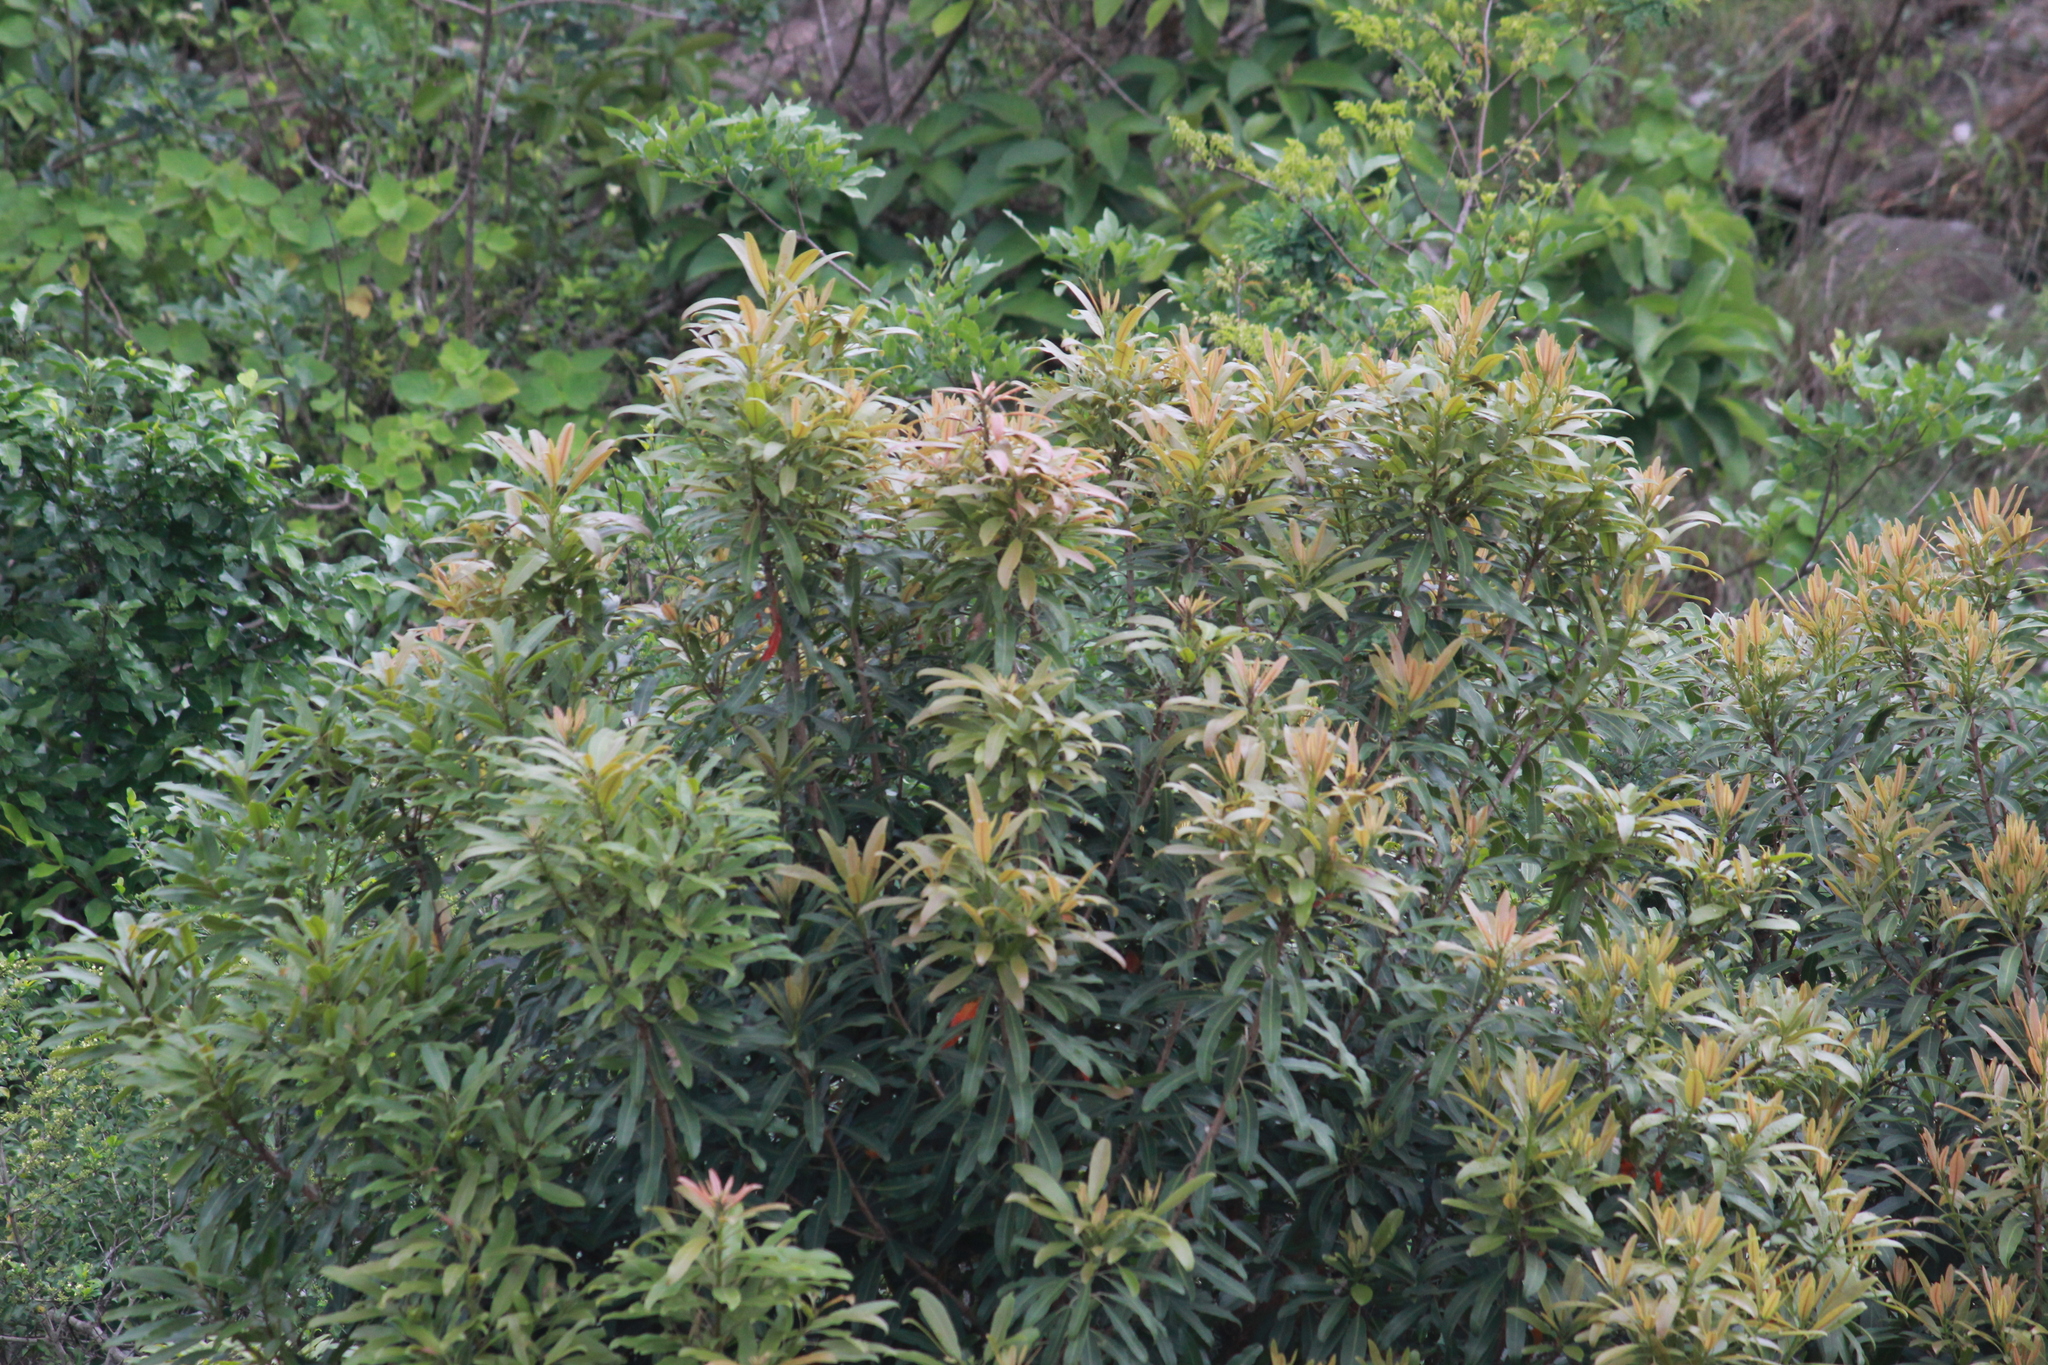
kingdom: Plantae
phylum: Tracheophyta
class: Magnoliopsida
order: Sapindales
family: Anacardiaceae
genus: Protorhus
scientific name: Protorhus longifolia
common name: Red-beech
